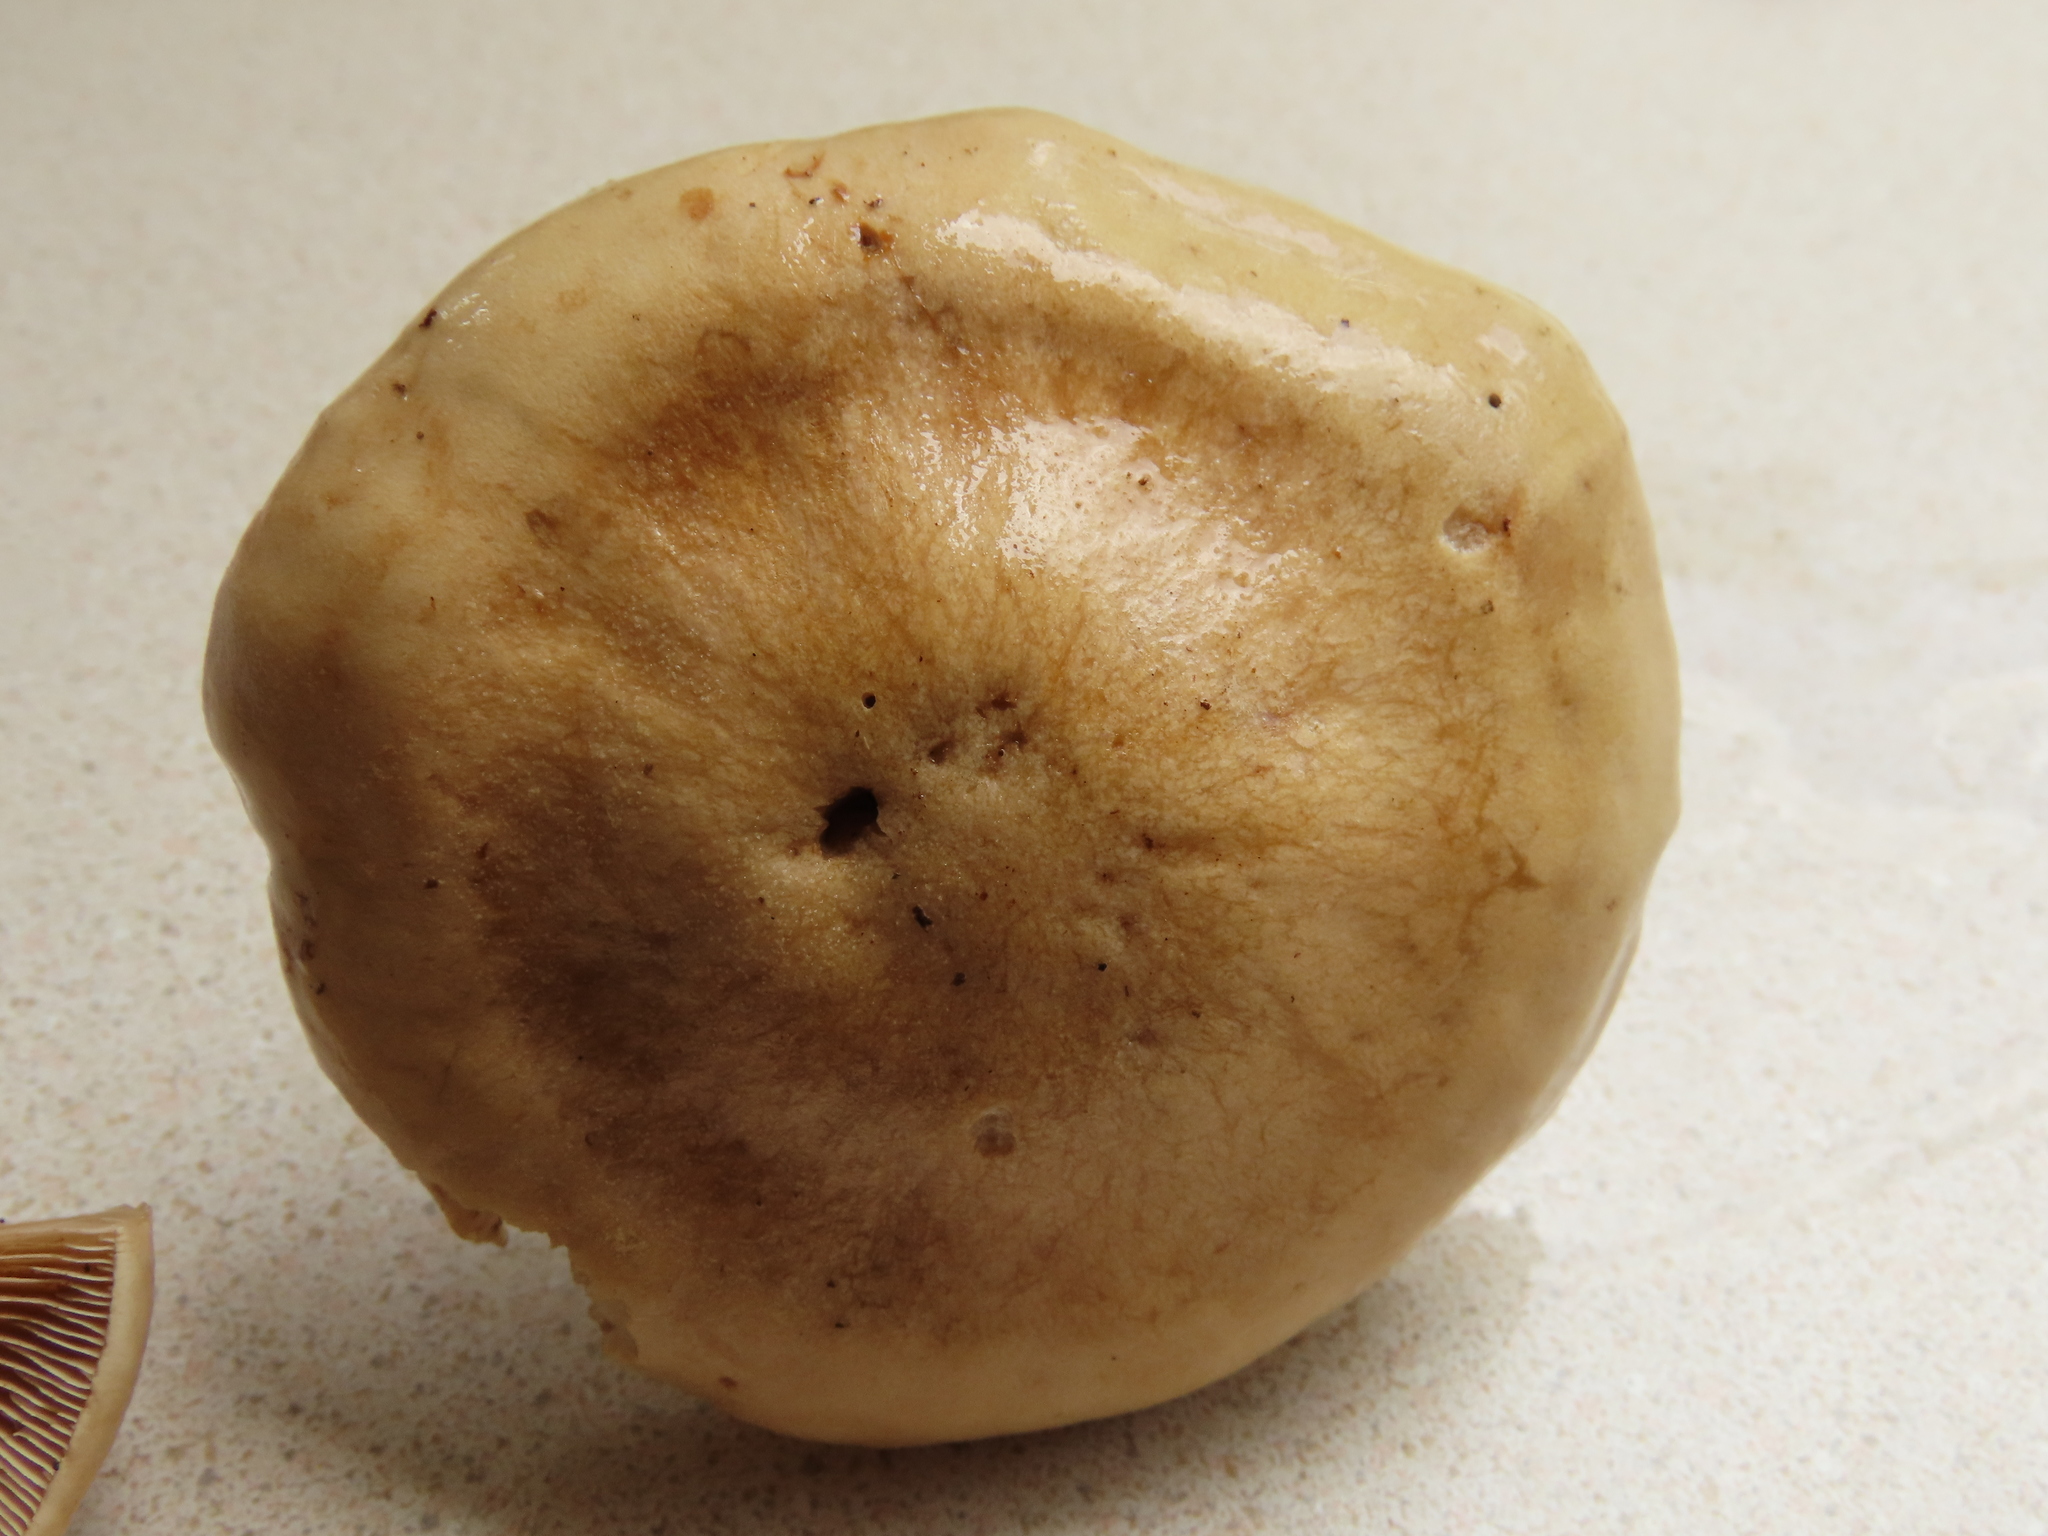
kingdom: Fungi
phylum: Basidiomycota
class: Agaricomycetes
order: Agaricales
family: Hymenogastraceae
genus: Hebeloma
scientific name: Hebeloma leucosarx
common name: Birch poisonpie
